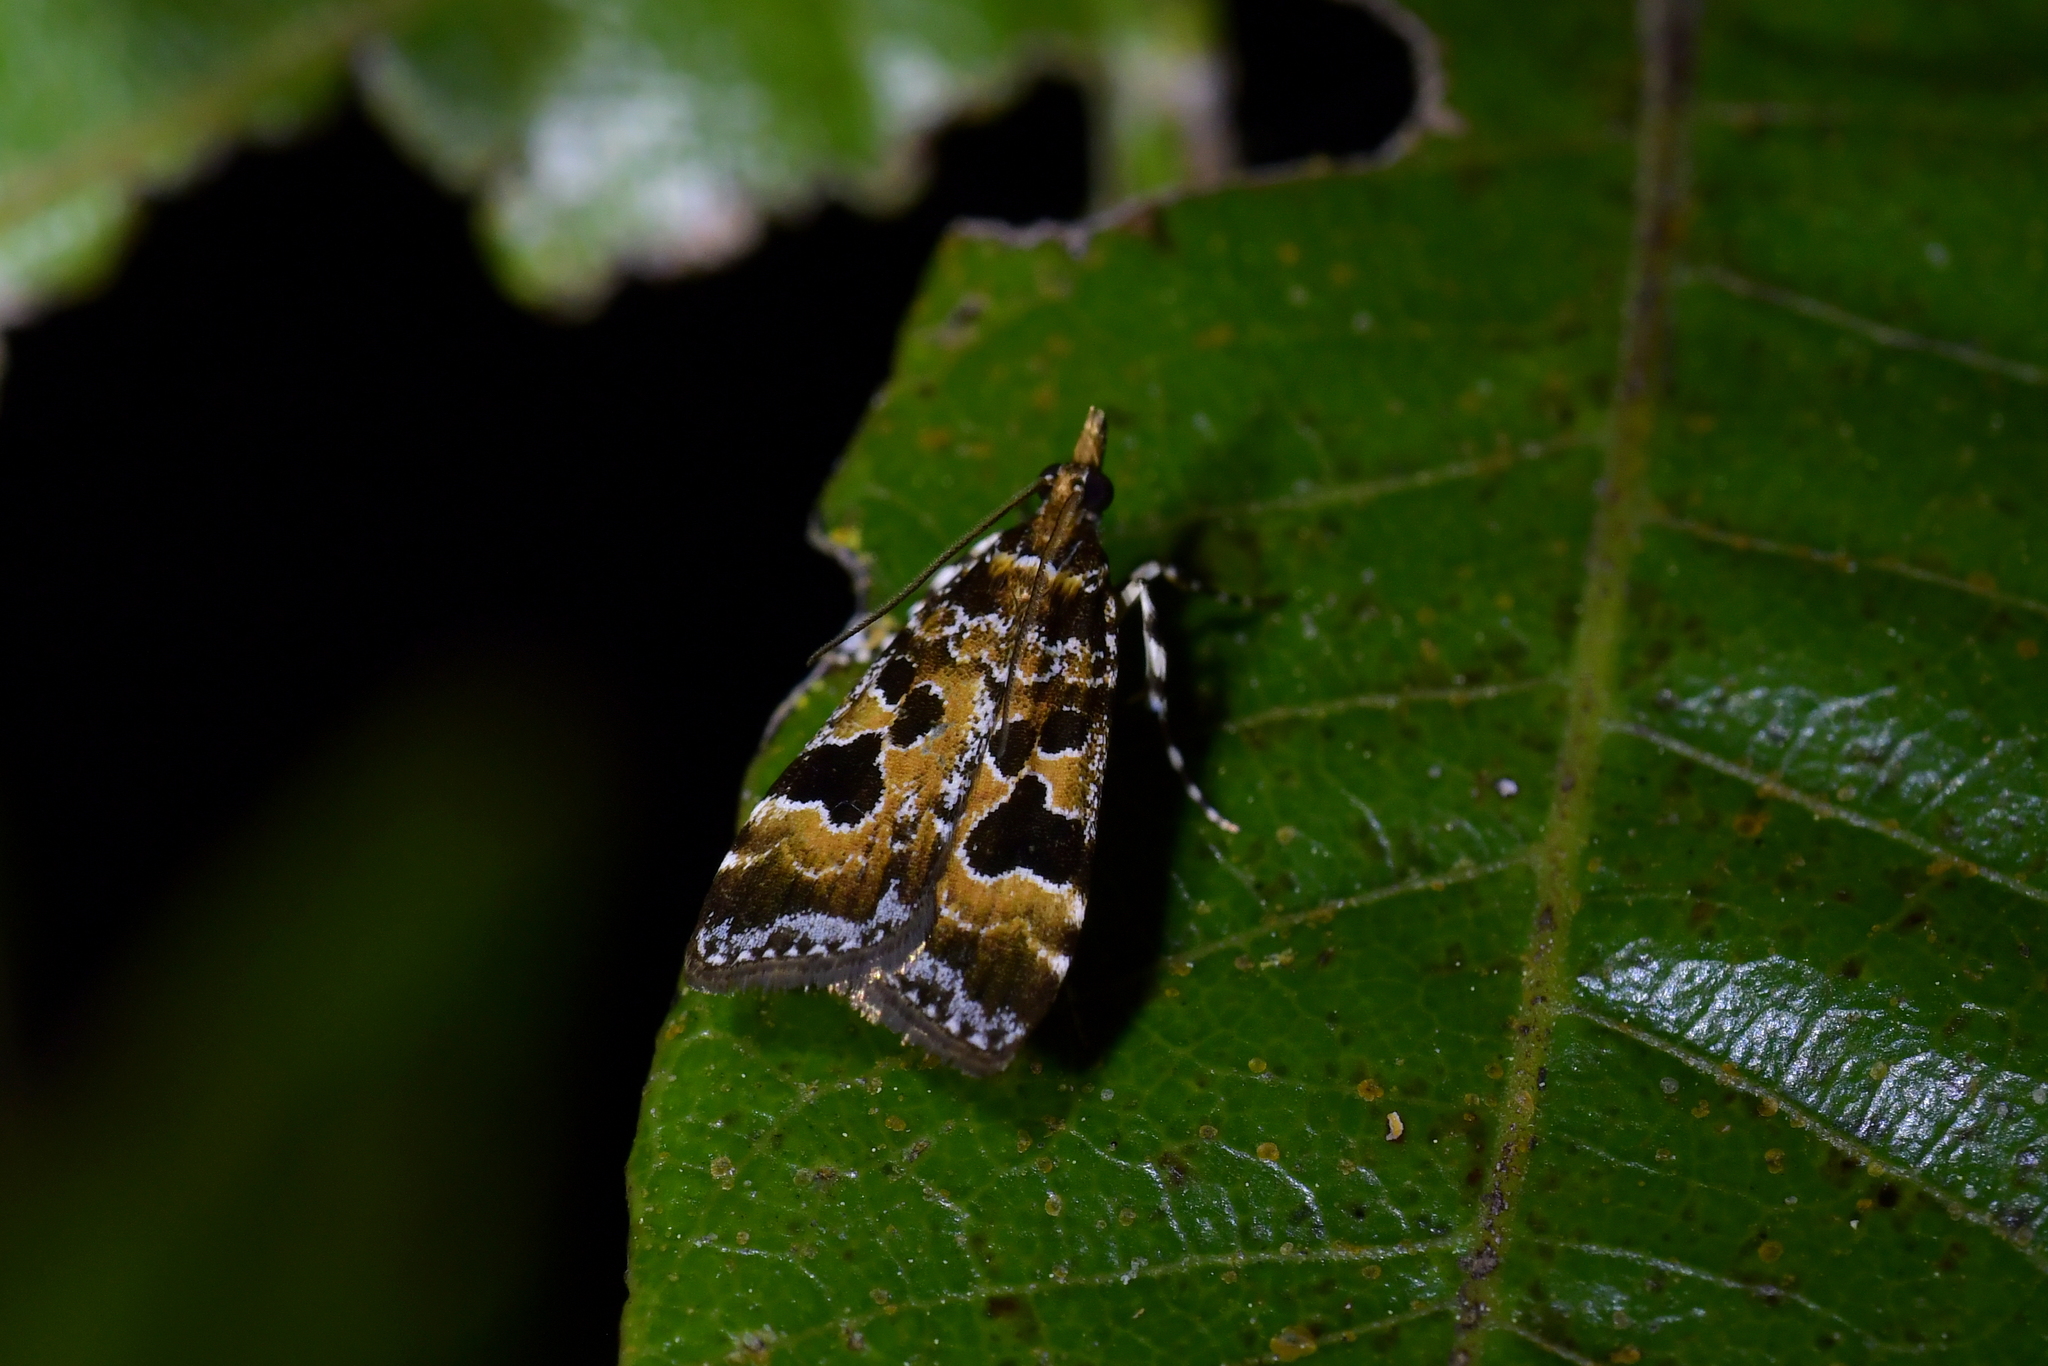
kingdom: Animalia
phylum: Arthropoda
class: Insecta
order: Lepidoptera
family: Crambidae
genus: Scoparia
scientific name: Scoparia ustimacula
